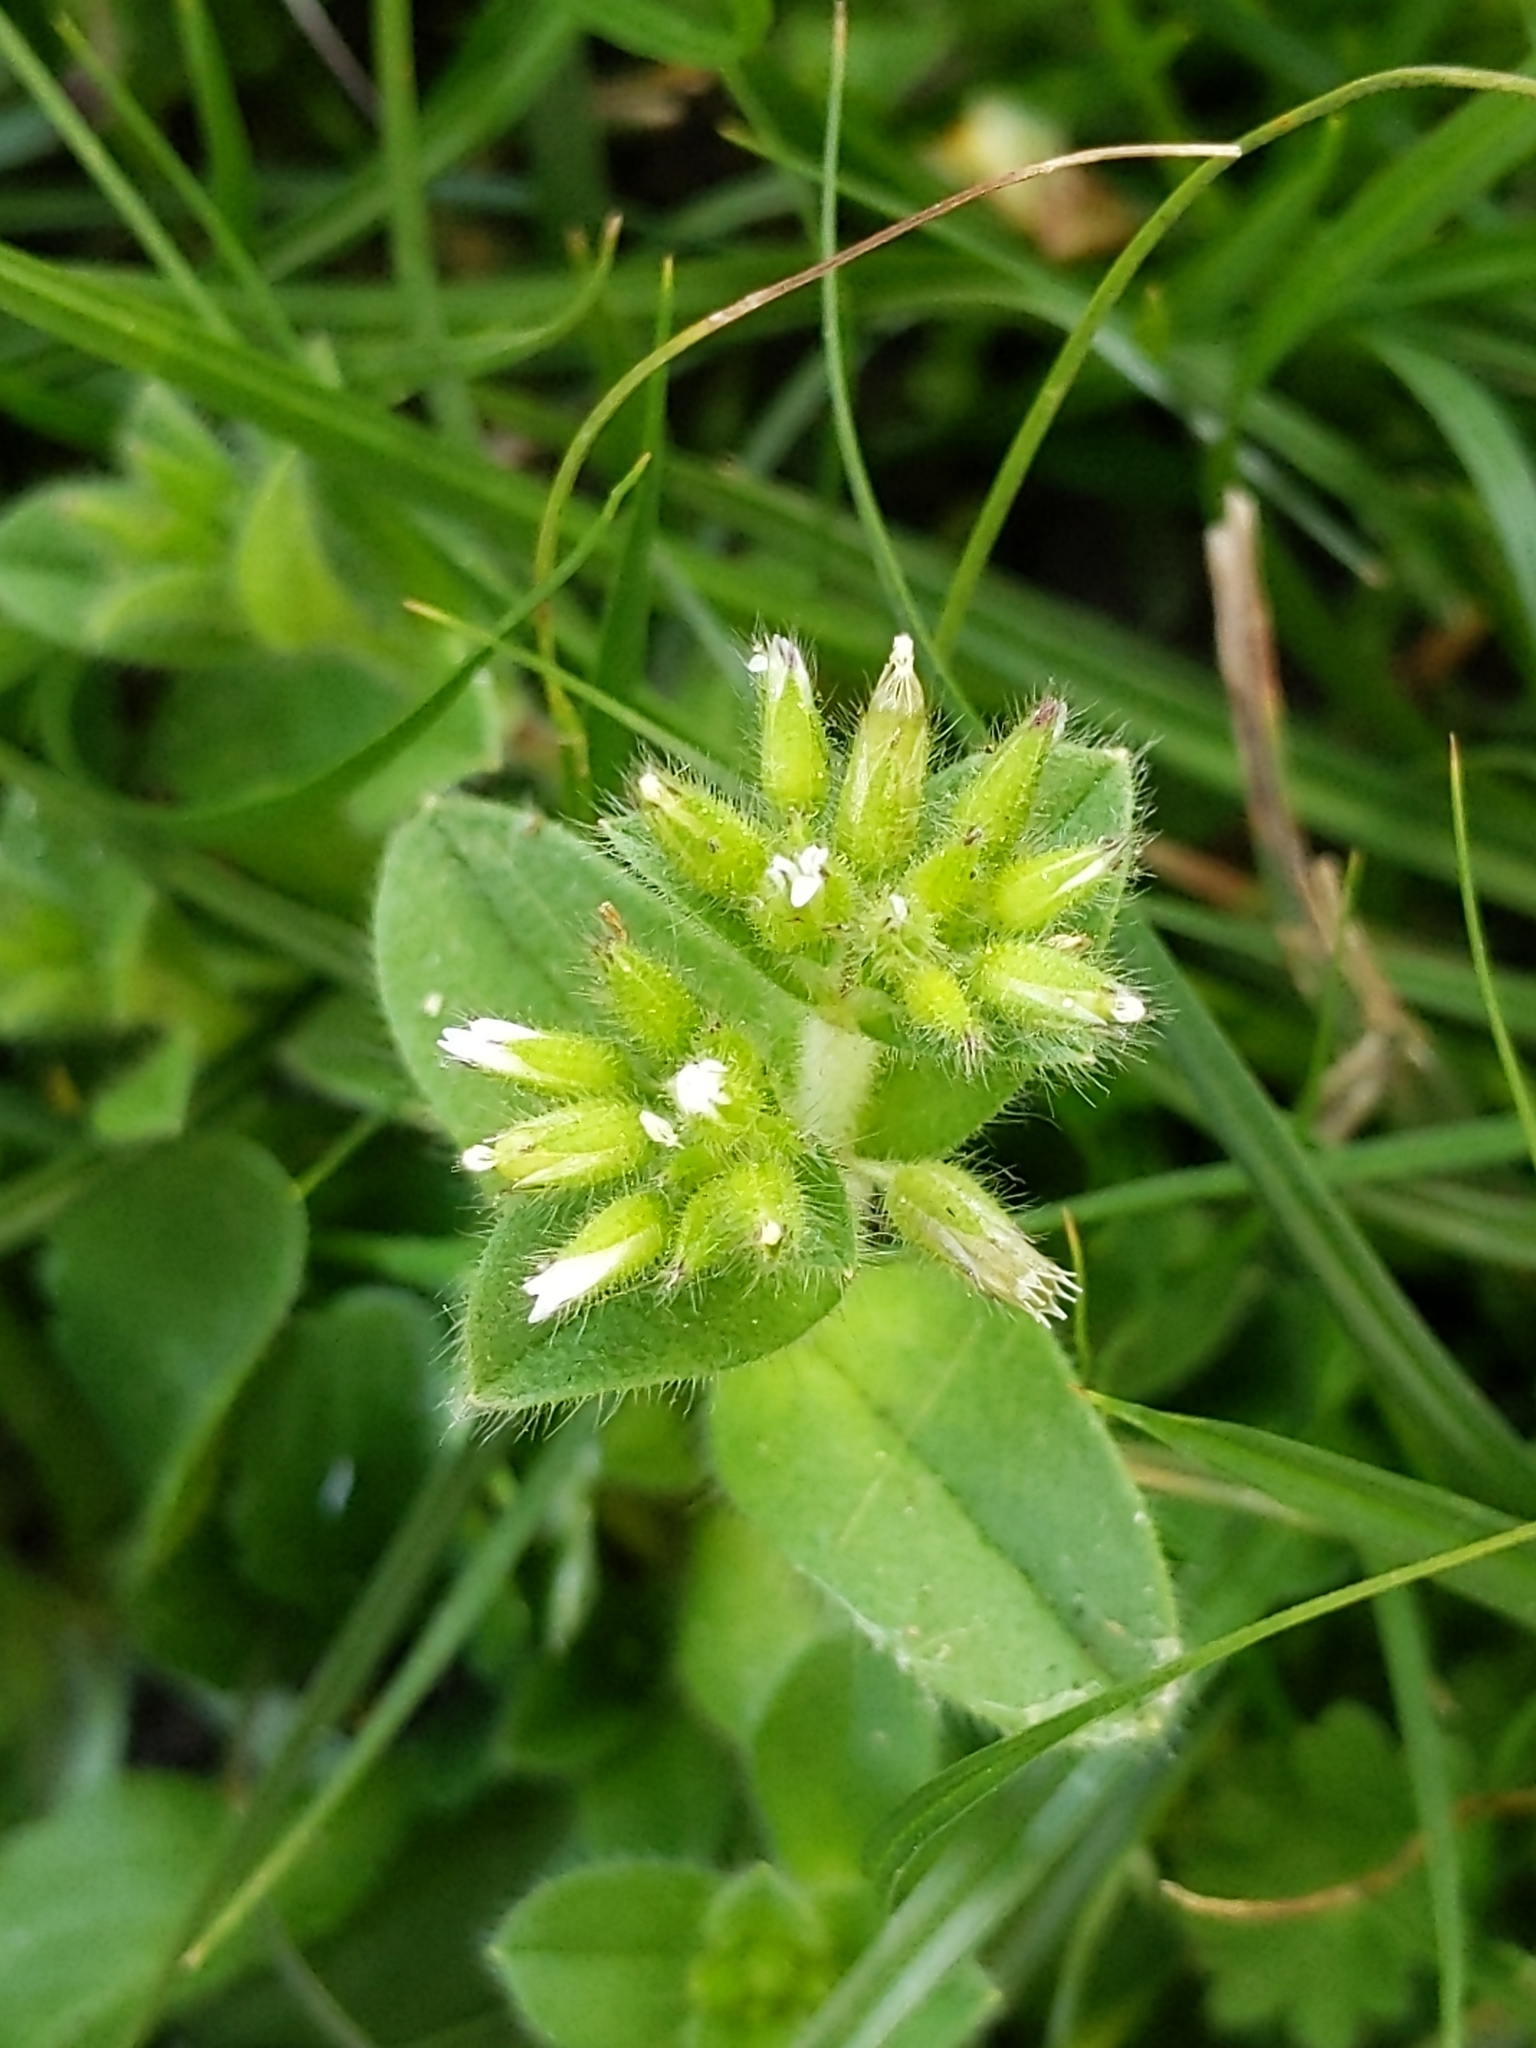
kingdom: Plantae
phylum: Tracheophyta
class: Magnoliopsida
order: Caryophyllales
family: Caryophyllaceae
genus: Cerastium
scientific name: Cerastium glomeratum
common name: Sticky chickweed
